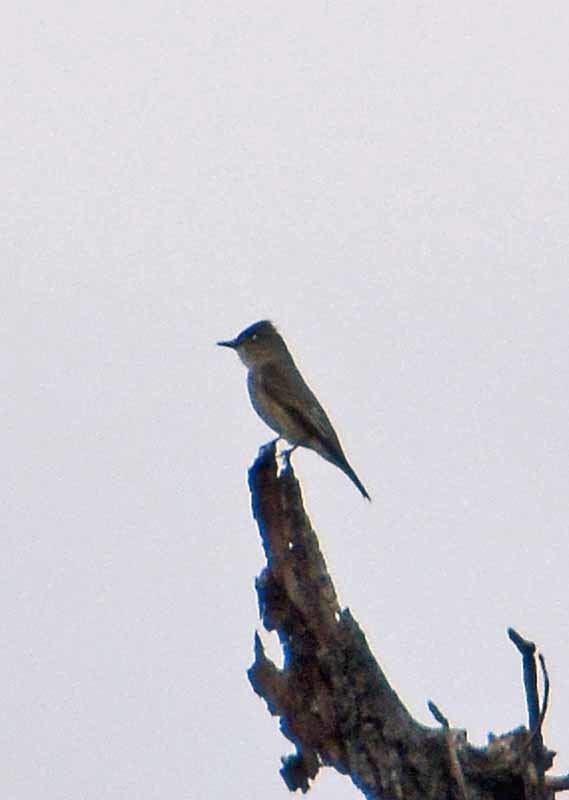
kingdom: Animalia
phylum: Chordata
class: Aves
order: Passeriformes
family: Tyrannidae
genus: Contopus
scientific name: Contopus sordidulus
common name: Western wood-pewee
